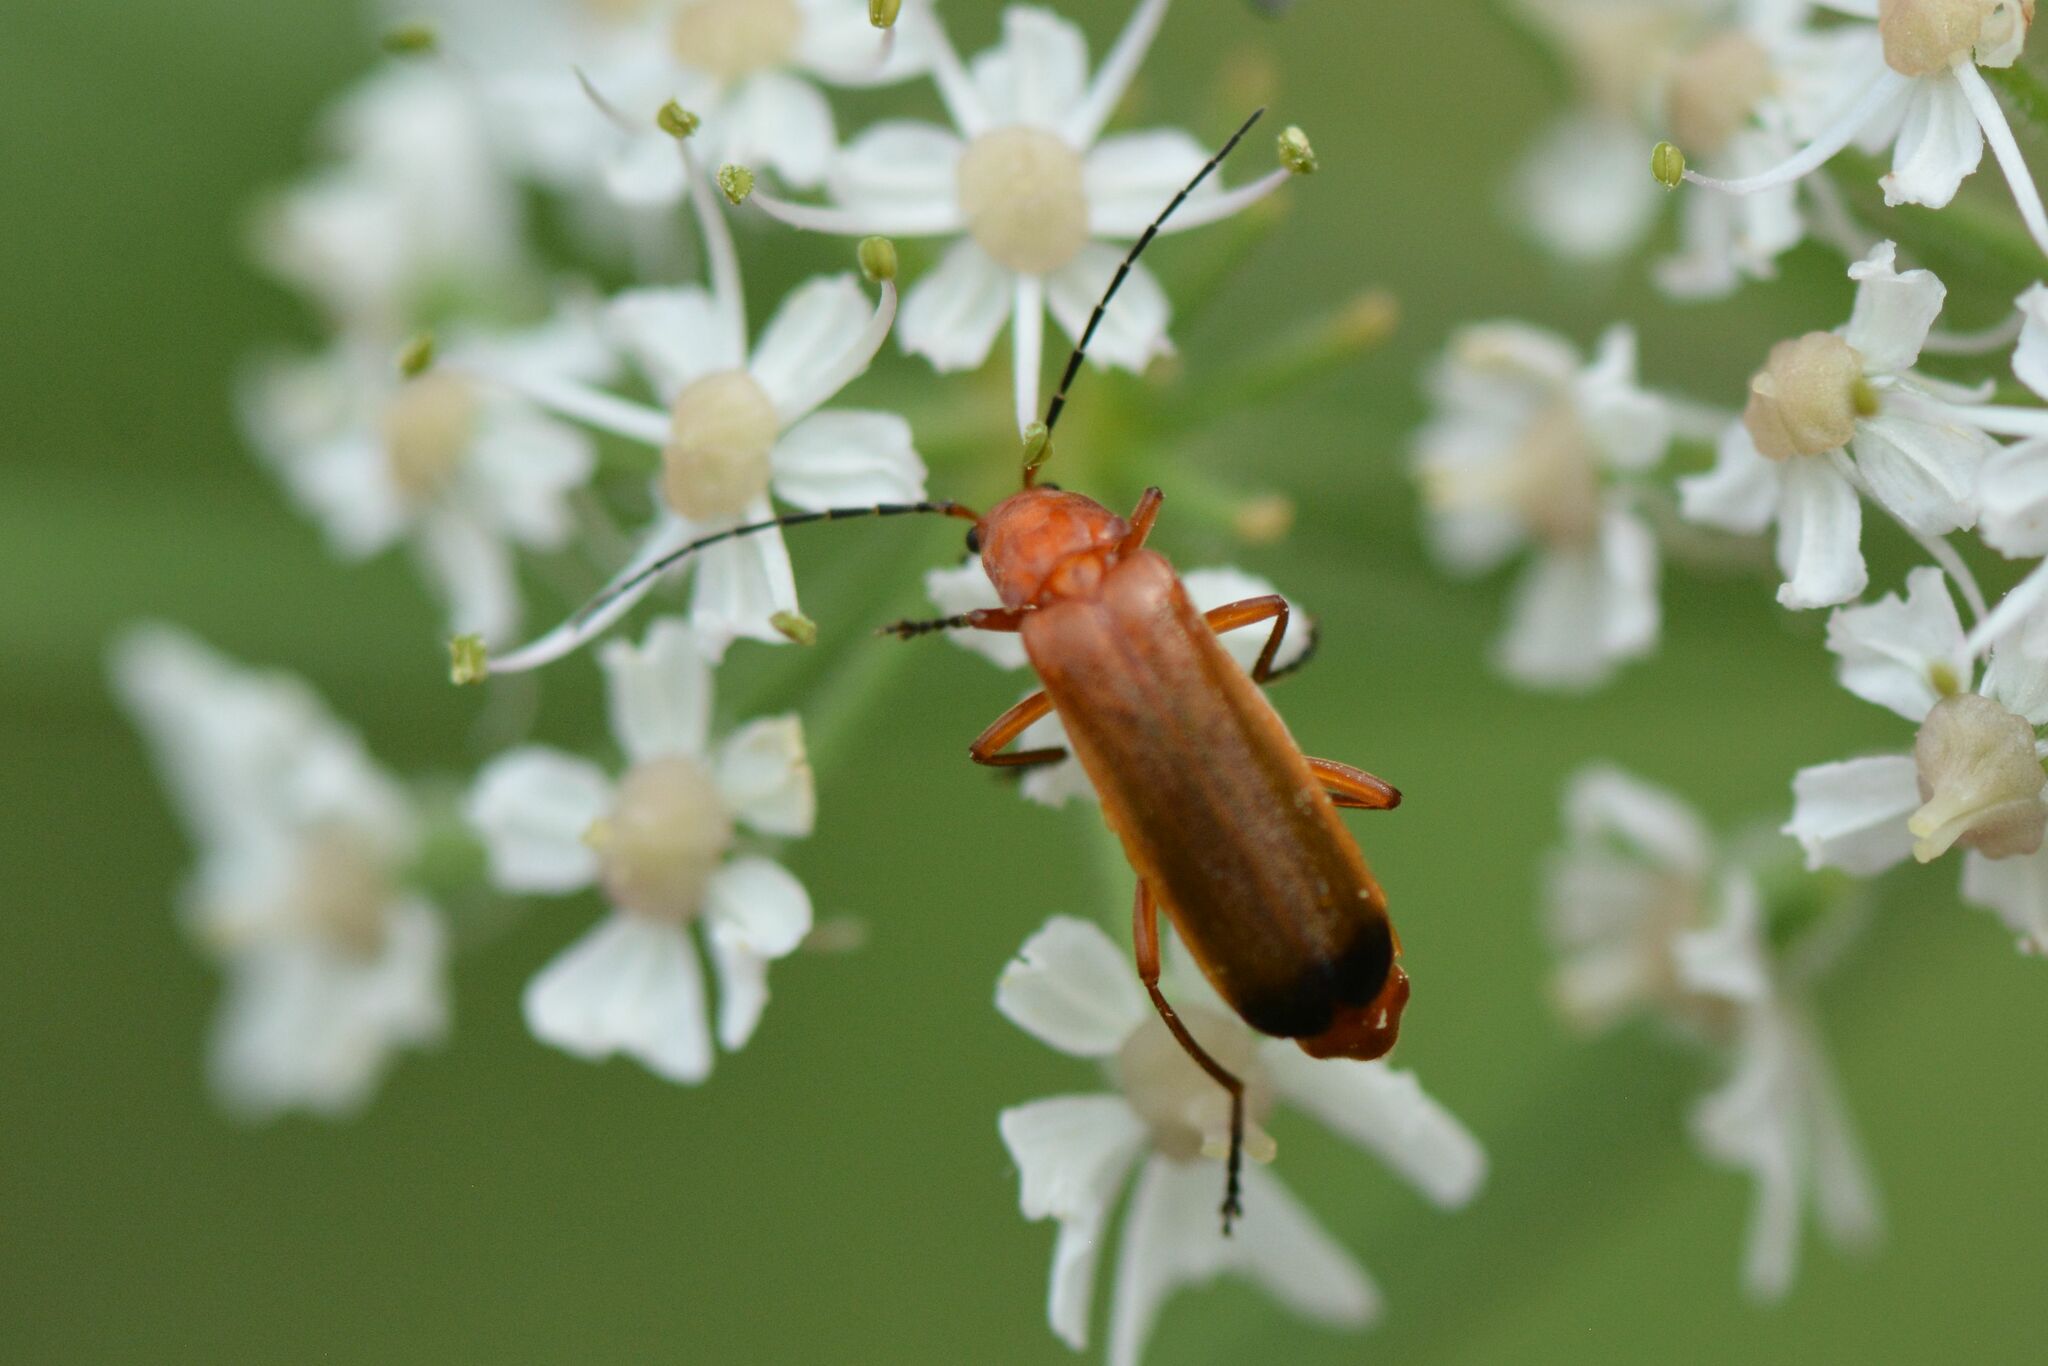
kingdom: Animalia
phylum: Arthropoda
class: Insecta
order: Coleoptera
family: Cantharidae
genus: Rhagonycha
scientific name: Rhagonycha fulva
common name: Common red soldier beetle
